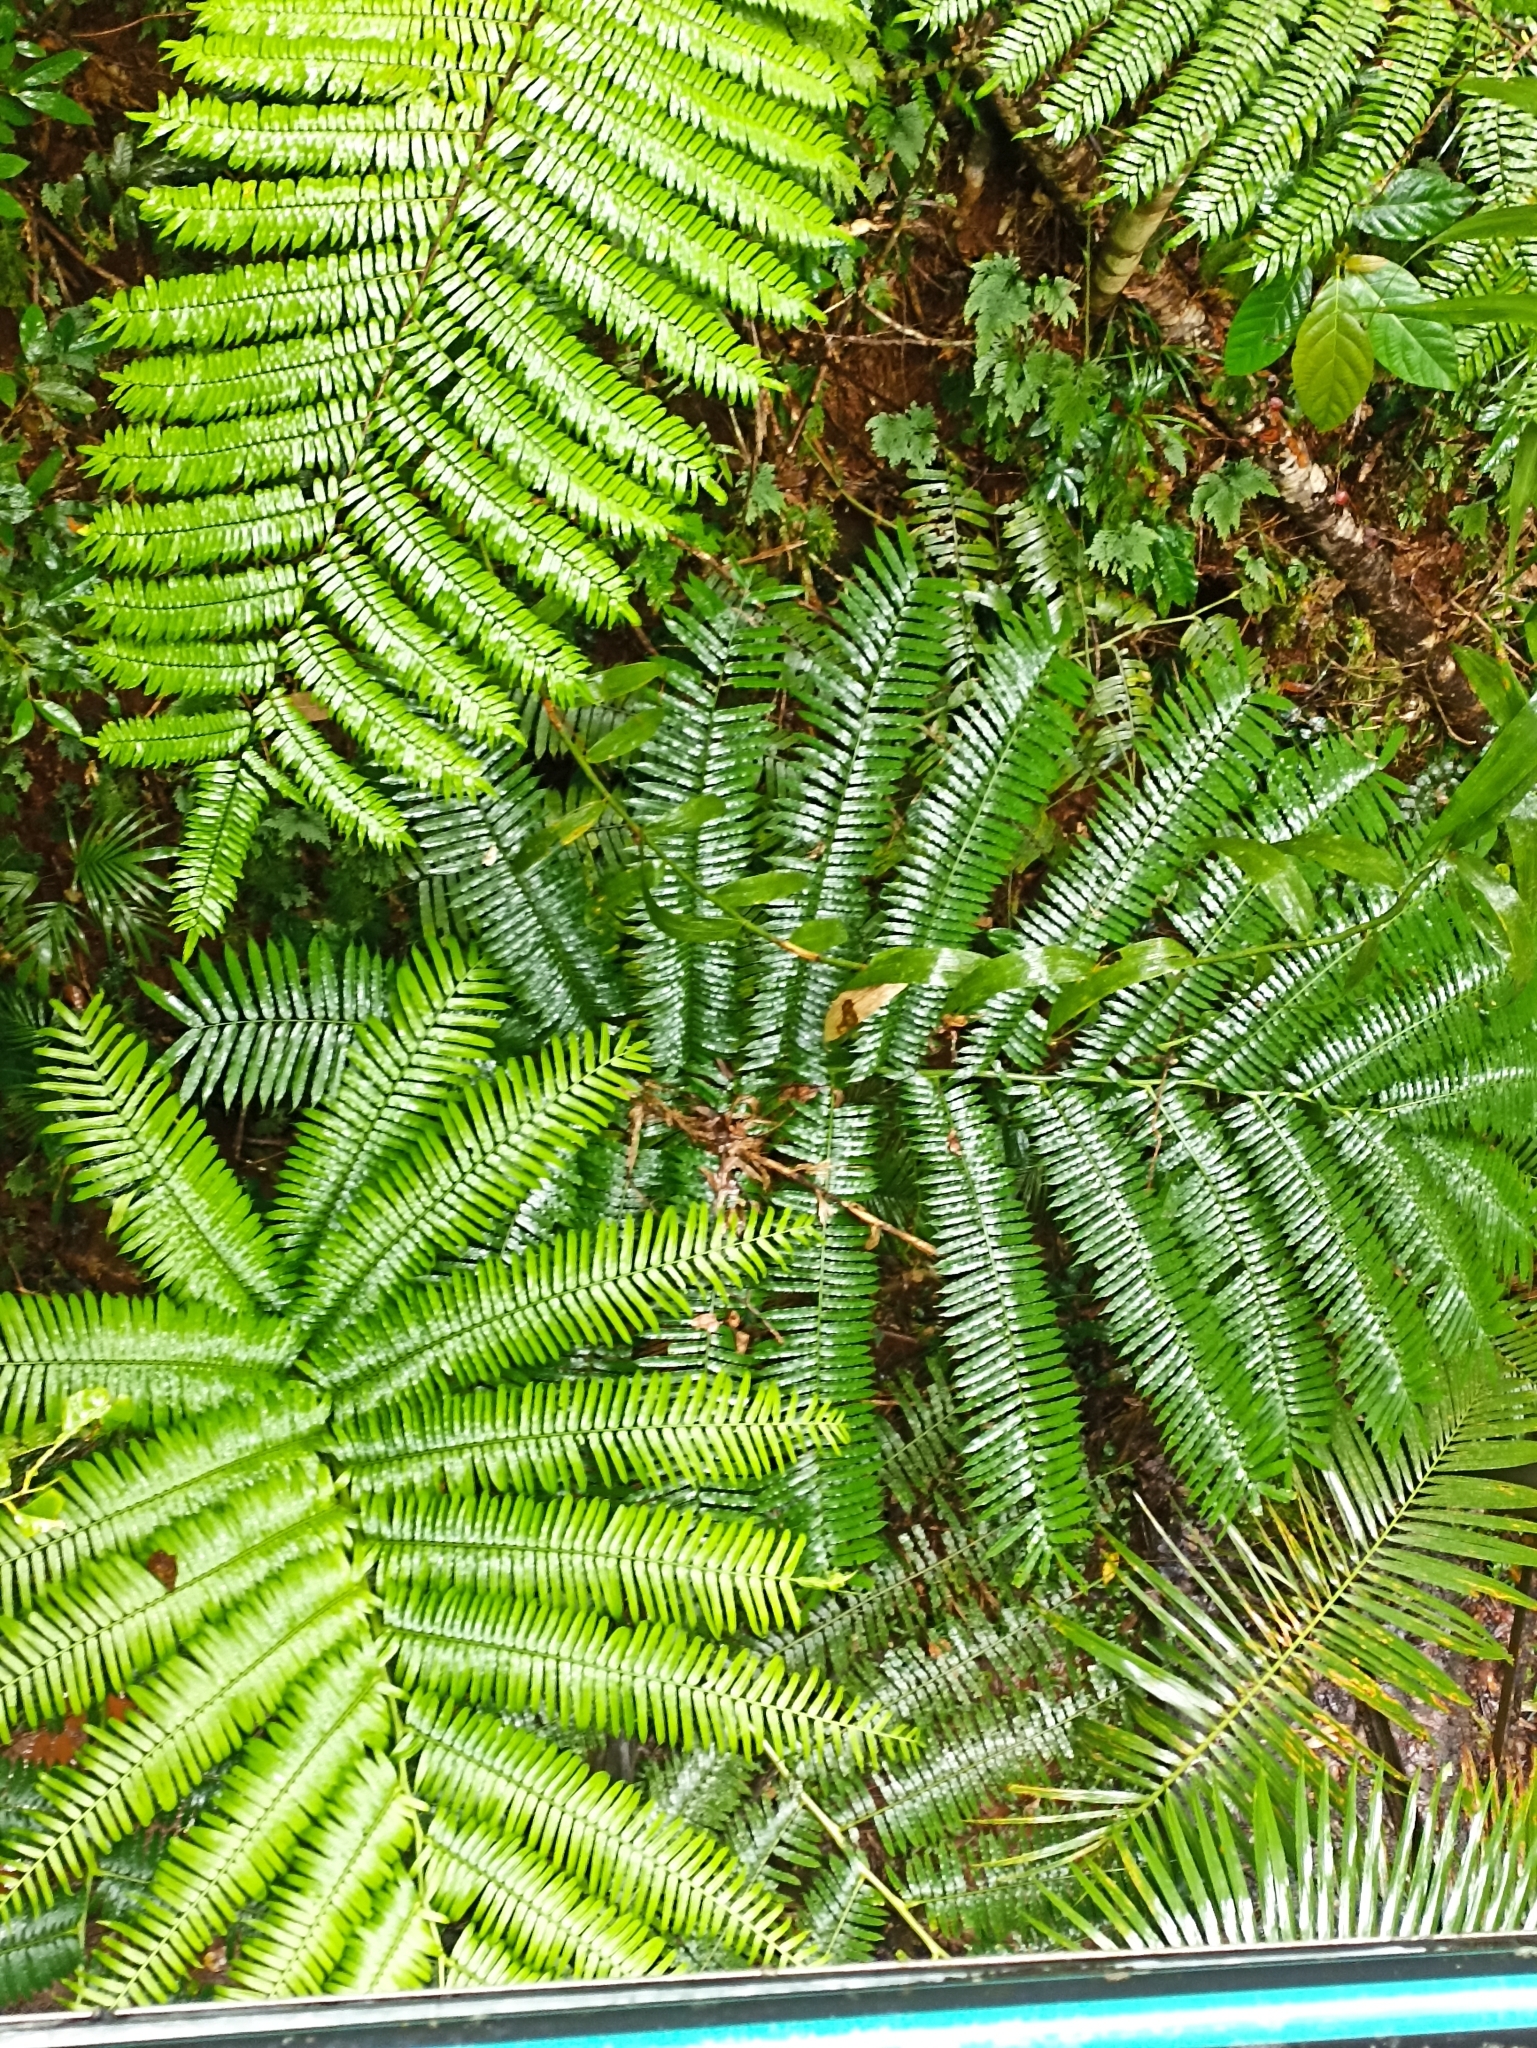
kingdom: Plantae
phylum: Tracheophyta
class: Polypodiopsida
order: Marattiales
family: Marattiaceae
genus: Angiopteris
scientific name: Angiopteris evecta
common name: Mule's-foot fern
